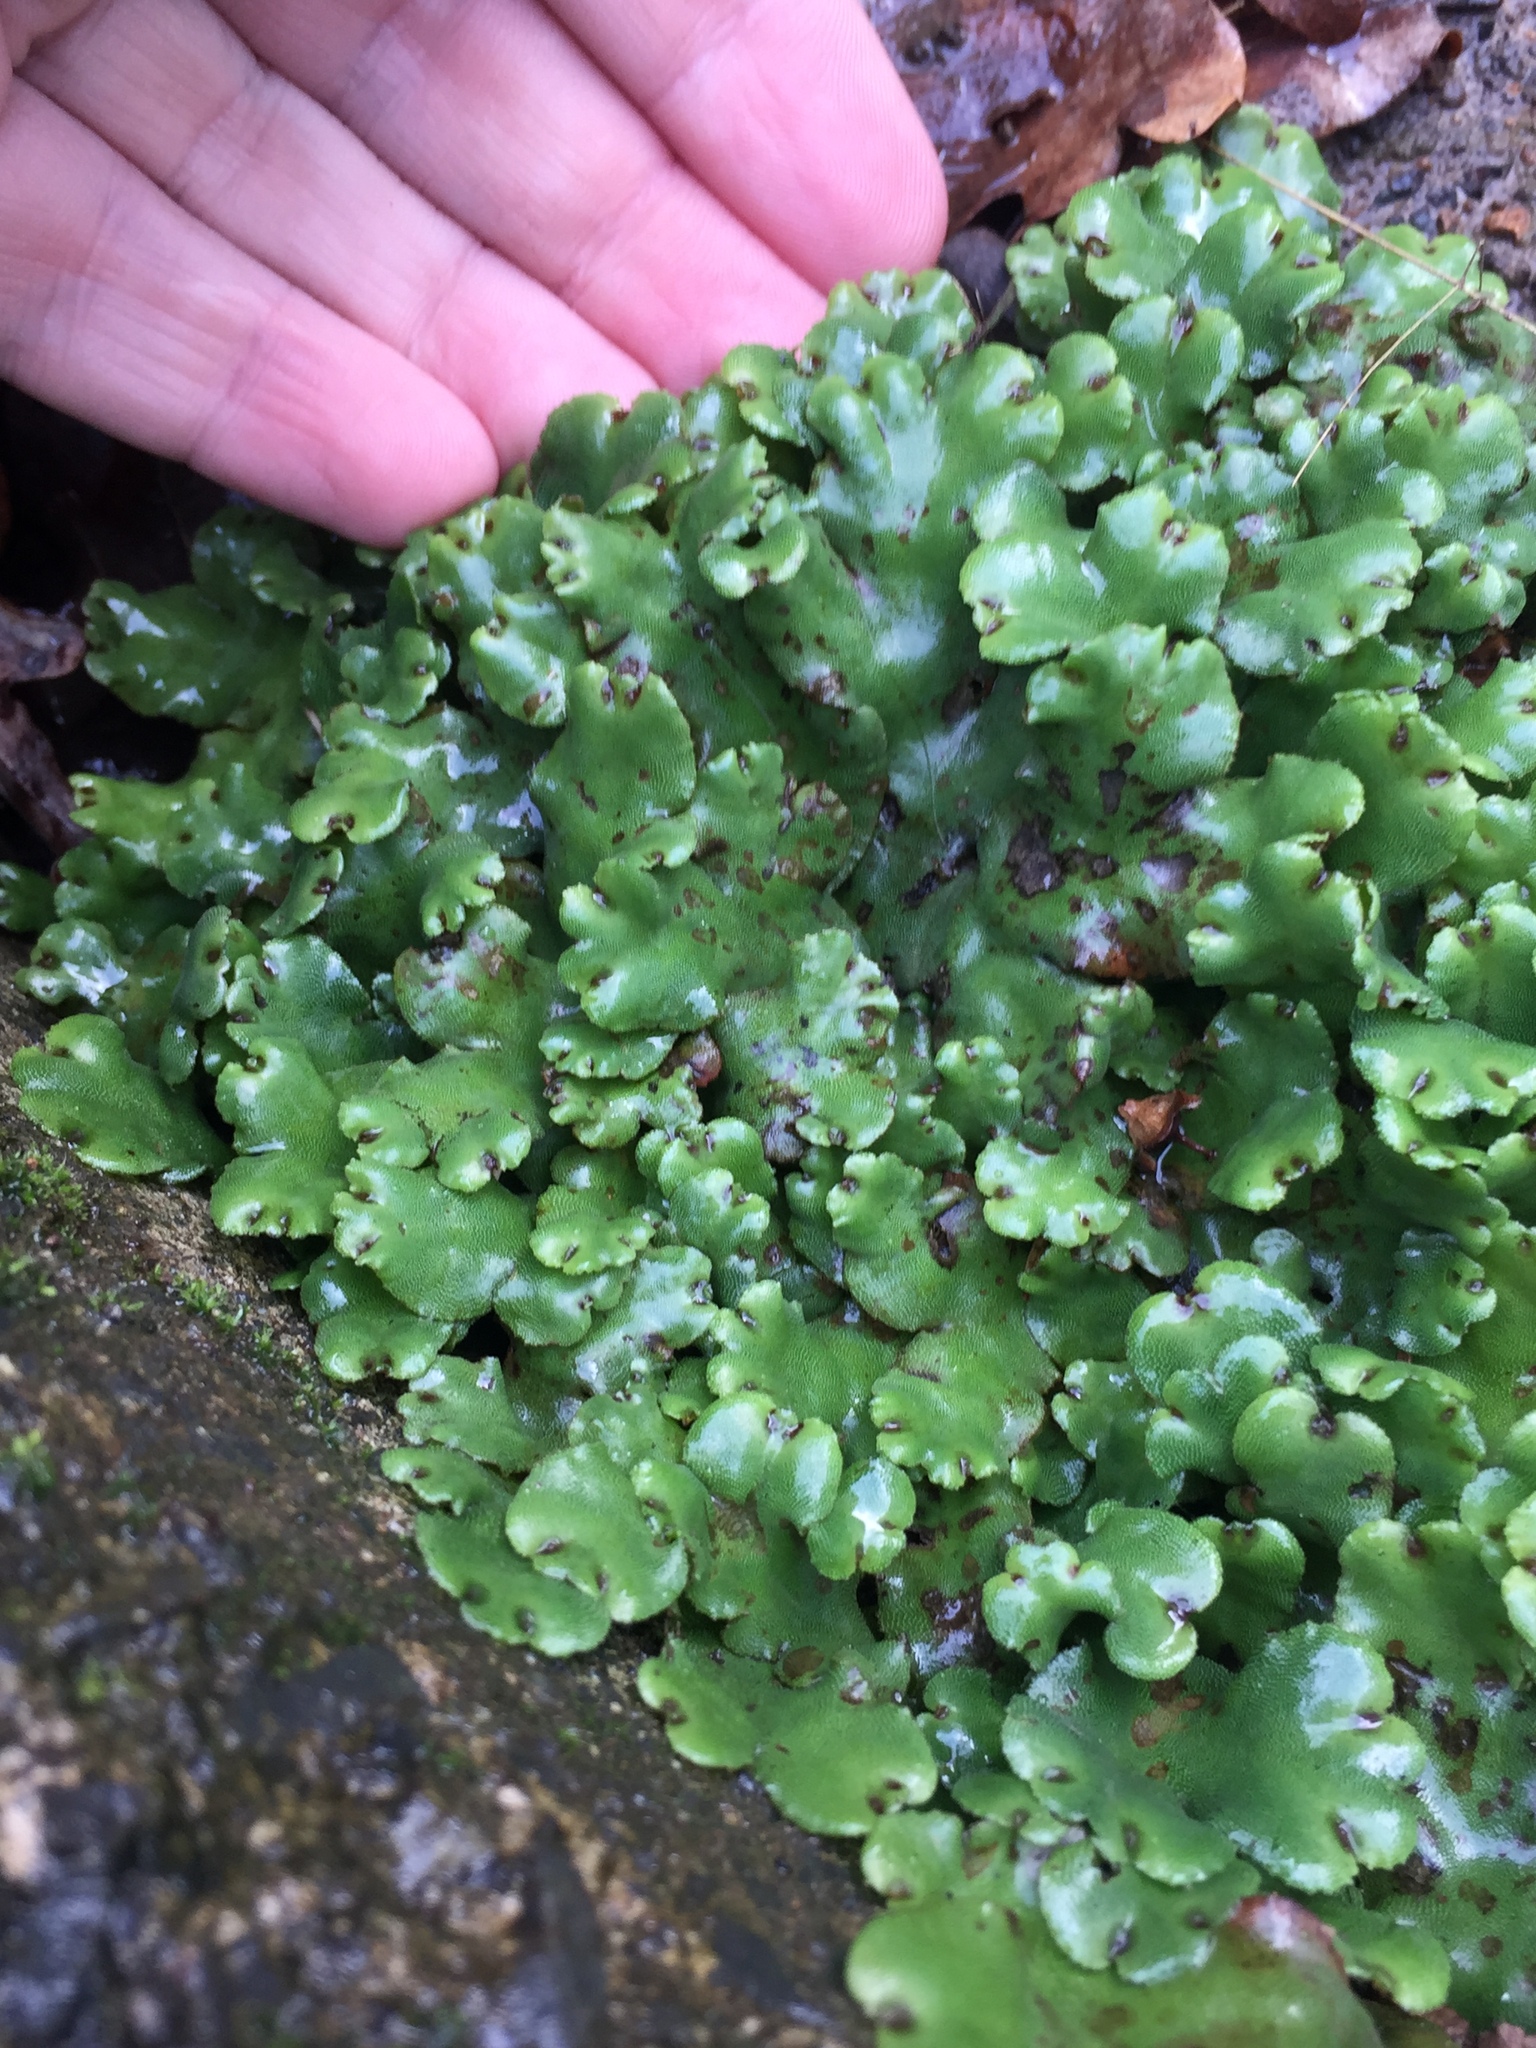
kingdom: Plantae
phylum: Marchantiophyta
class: Marchantiopsida
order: Marchantiales
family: Marchantiaceae
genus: Marchantia
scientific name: Marchantia berteroana
